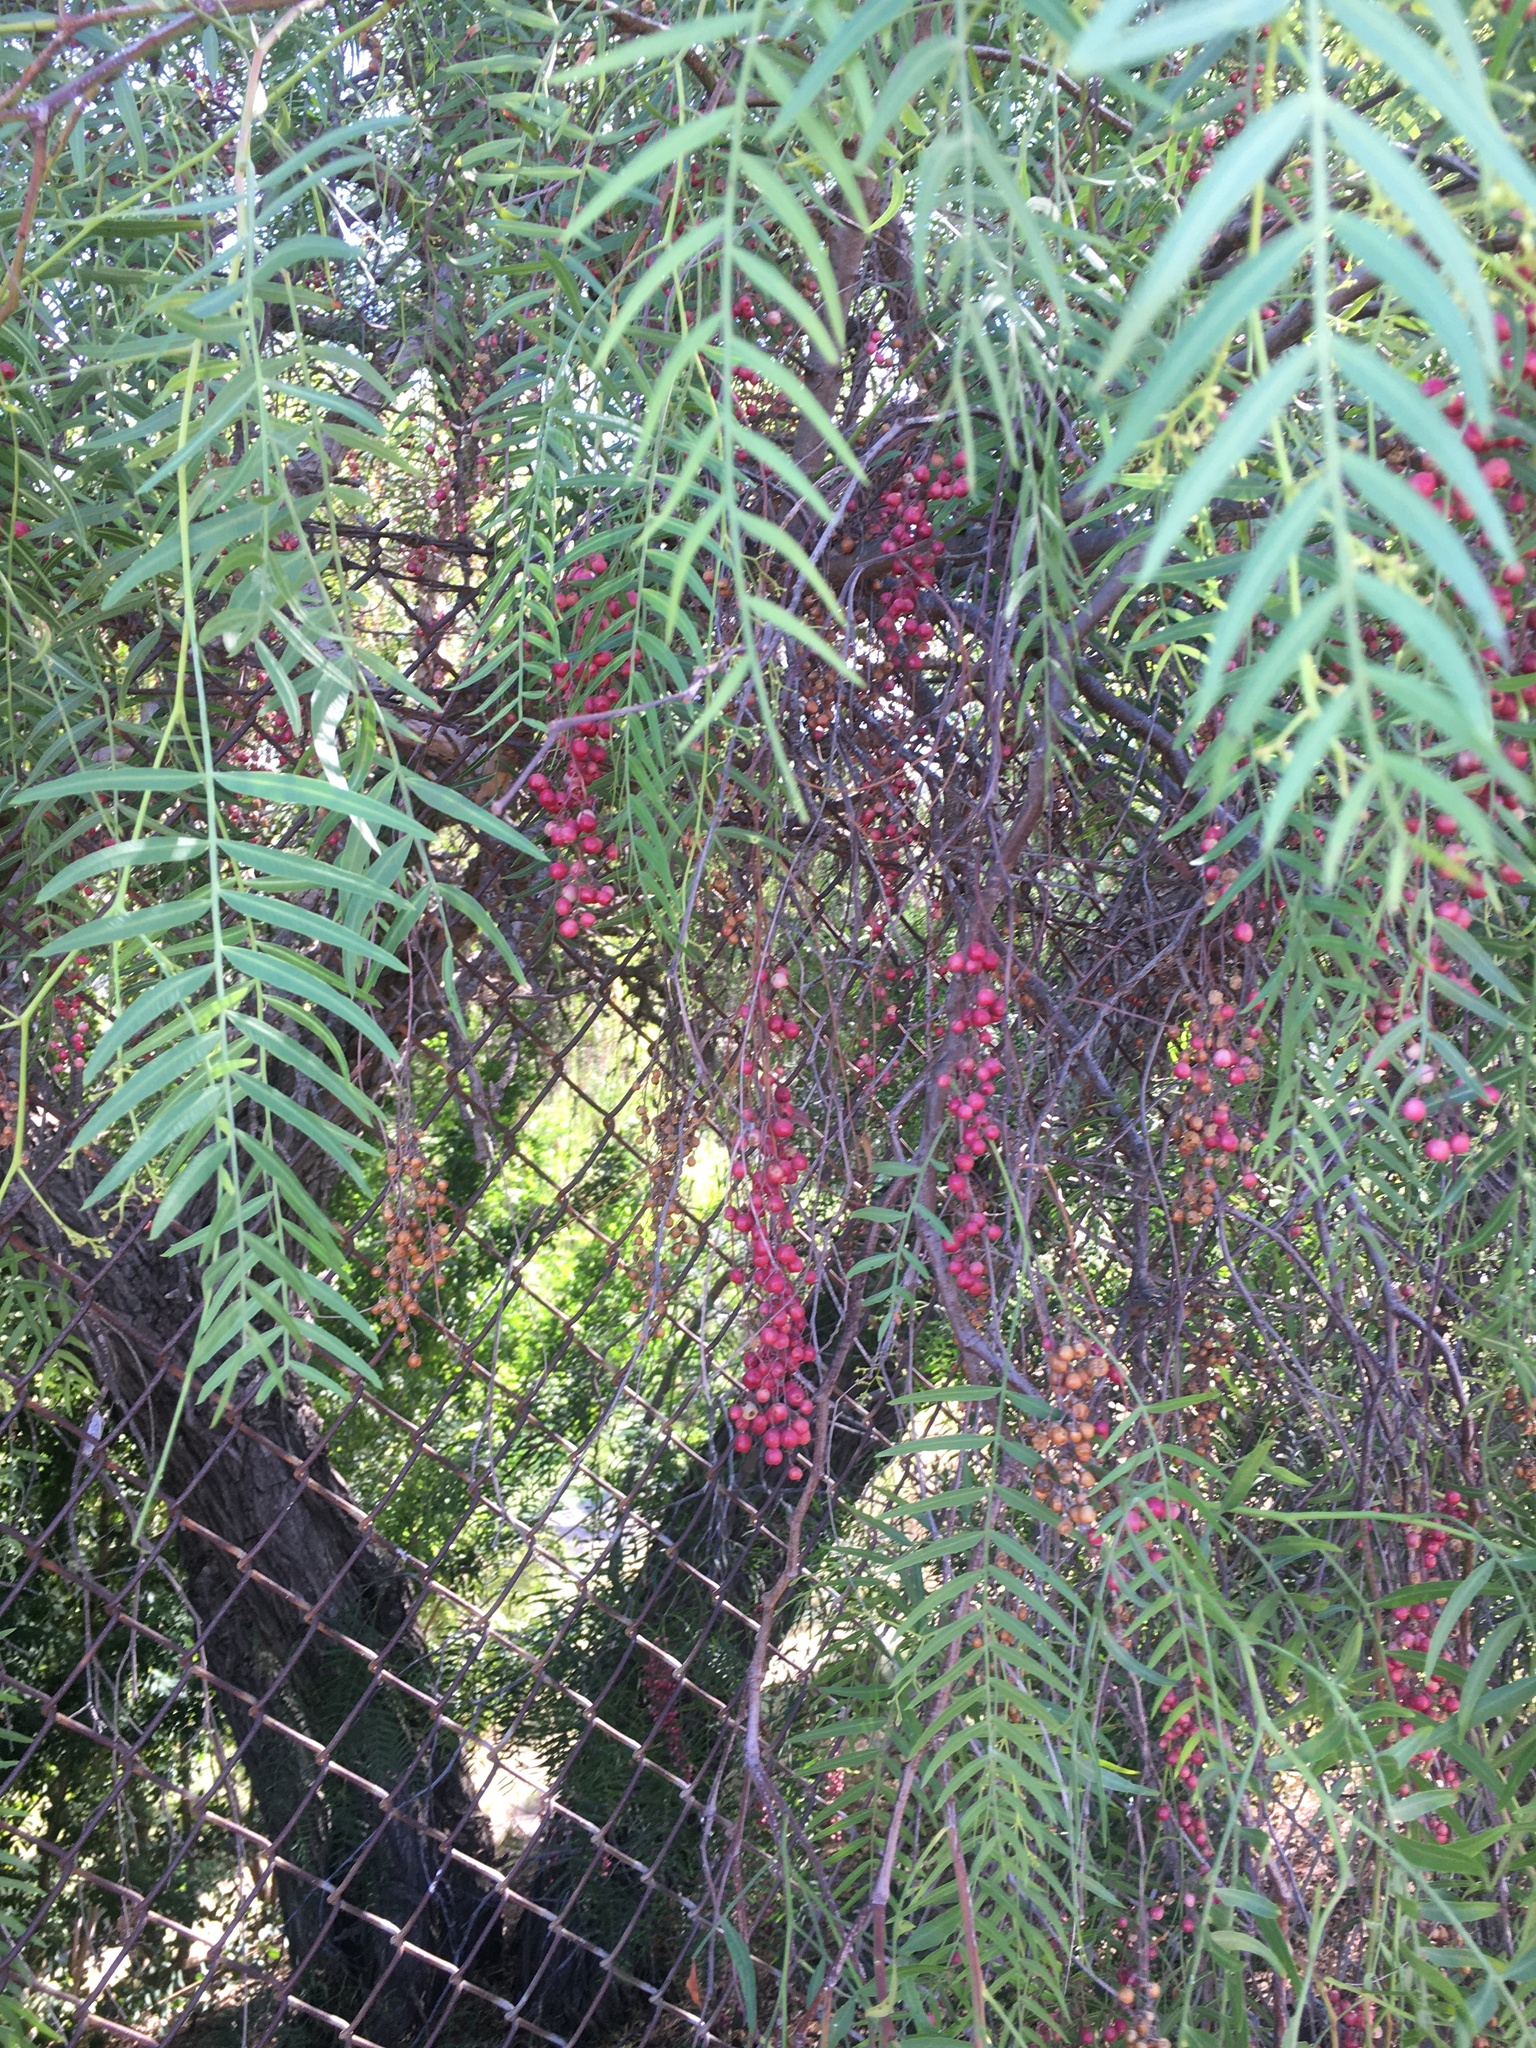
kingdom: Plantae
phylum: Tracheophyta
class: Magnoliopsida
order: Sapindales
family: Anacardiaceae
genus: Schinus
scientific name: Schinus molle
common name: Peruvian peppertree
